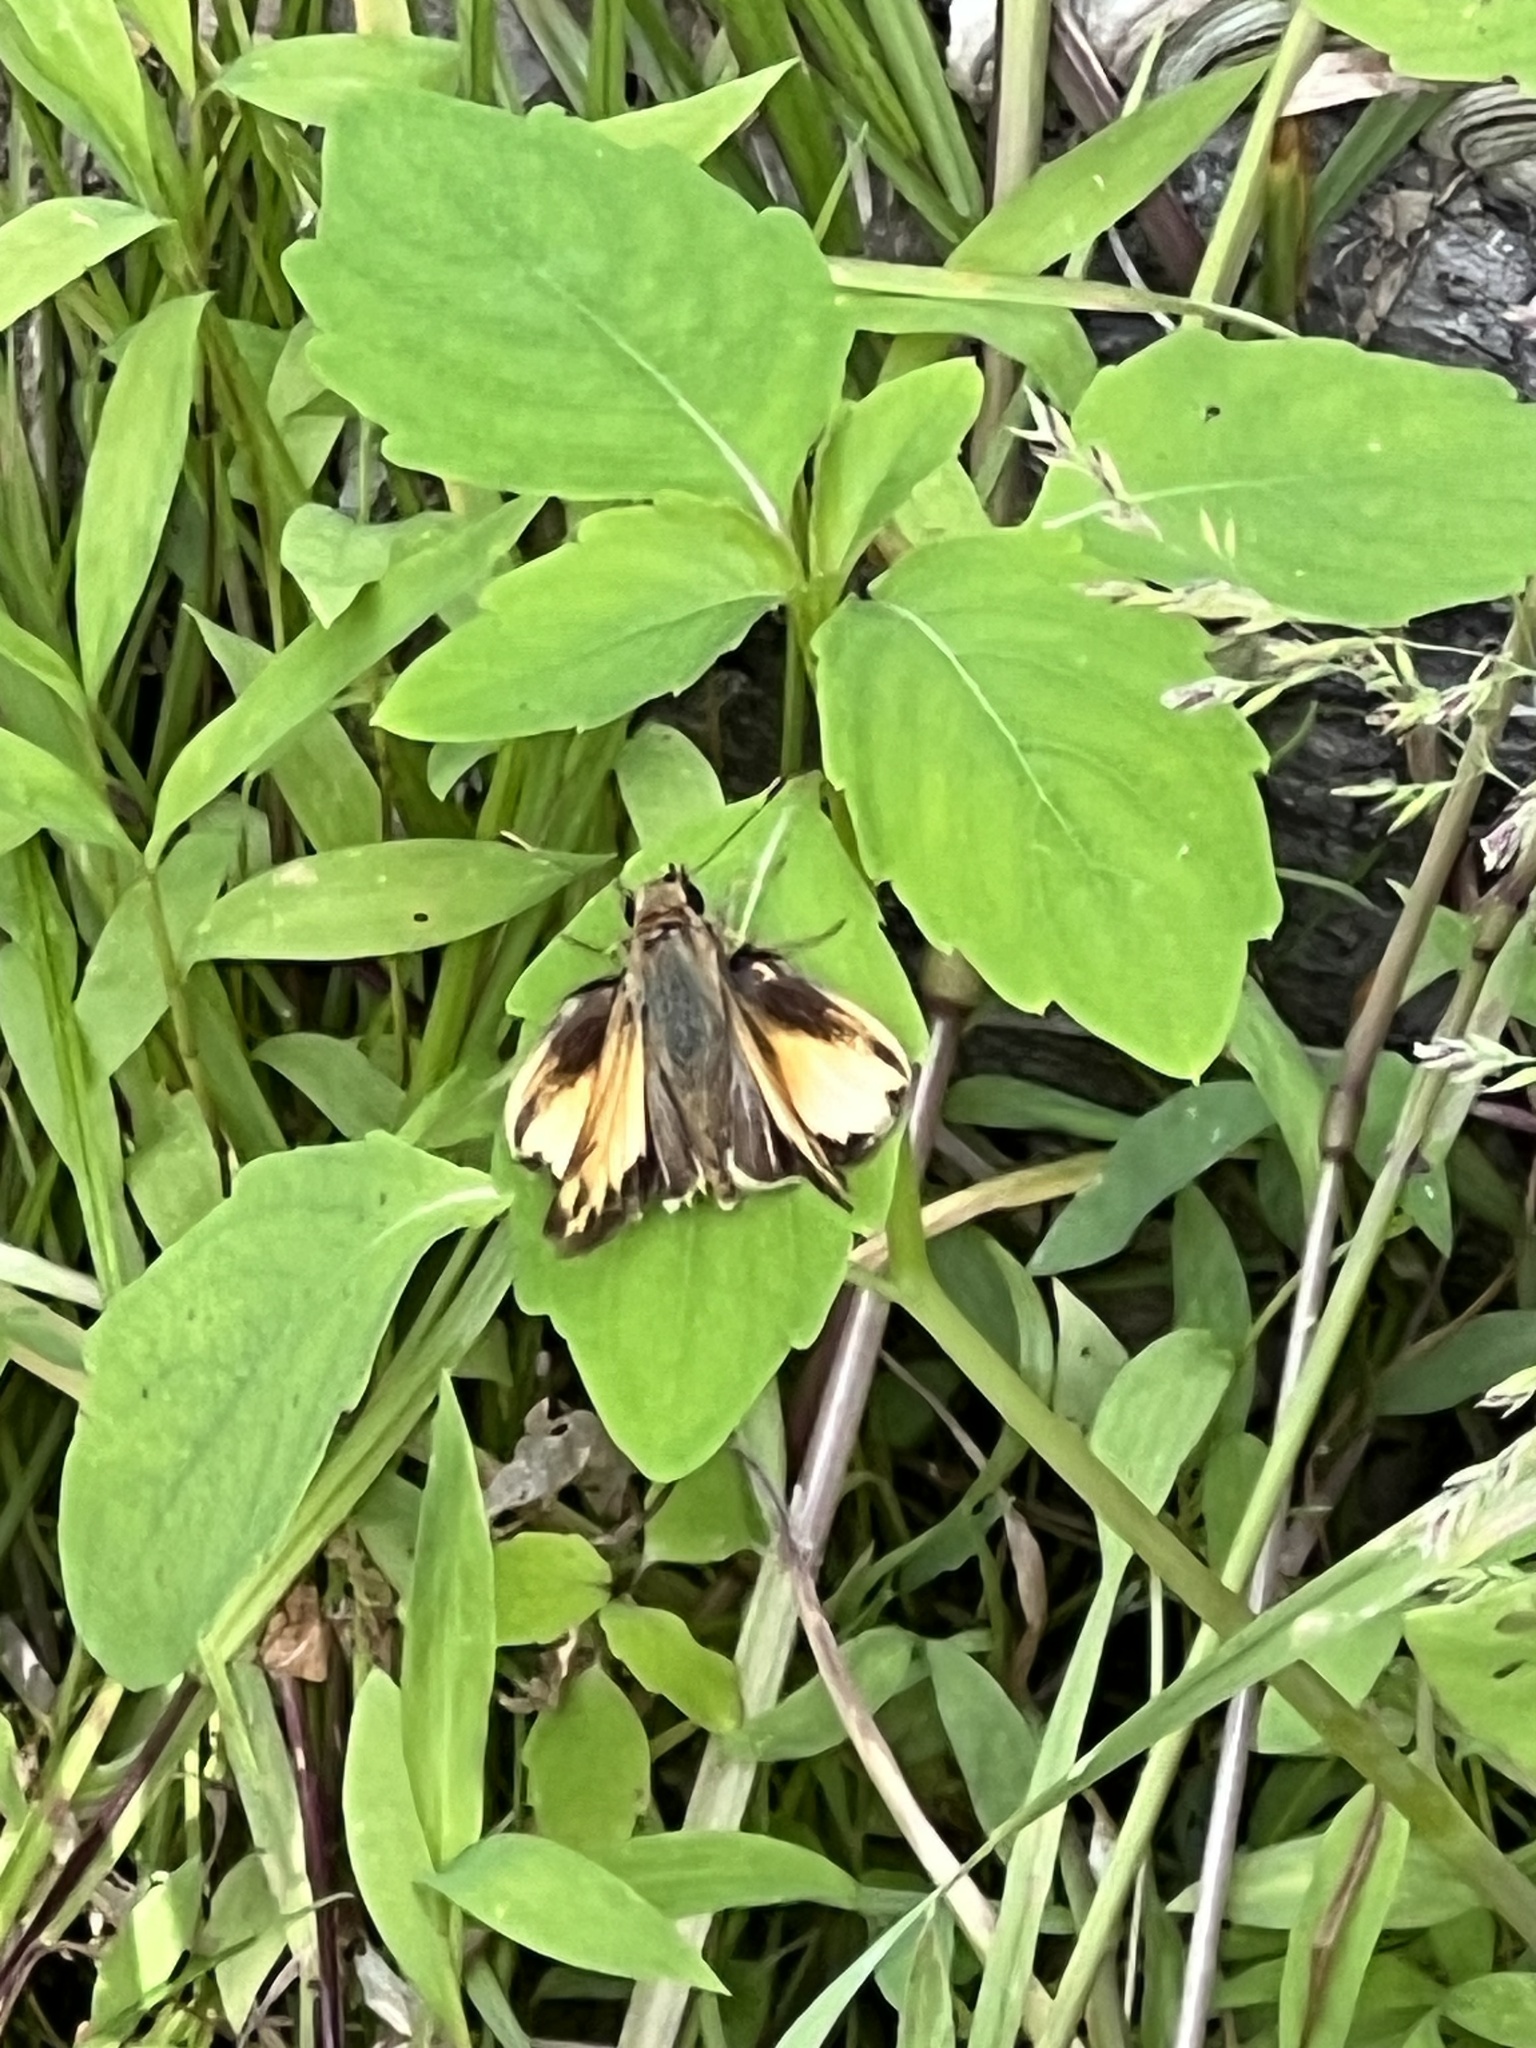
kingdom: Animalia
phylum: Arthropoda
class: Insecta
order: Lepidoptera
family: Hesperiidae
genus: Lon
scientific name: Lon zabulon
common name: Zabulon skipper
